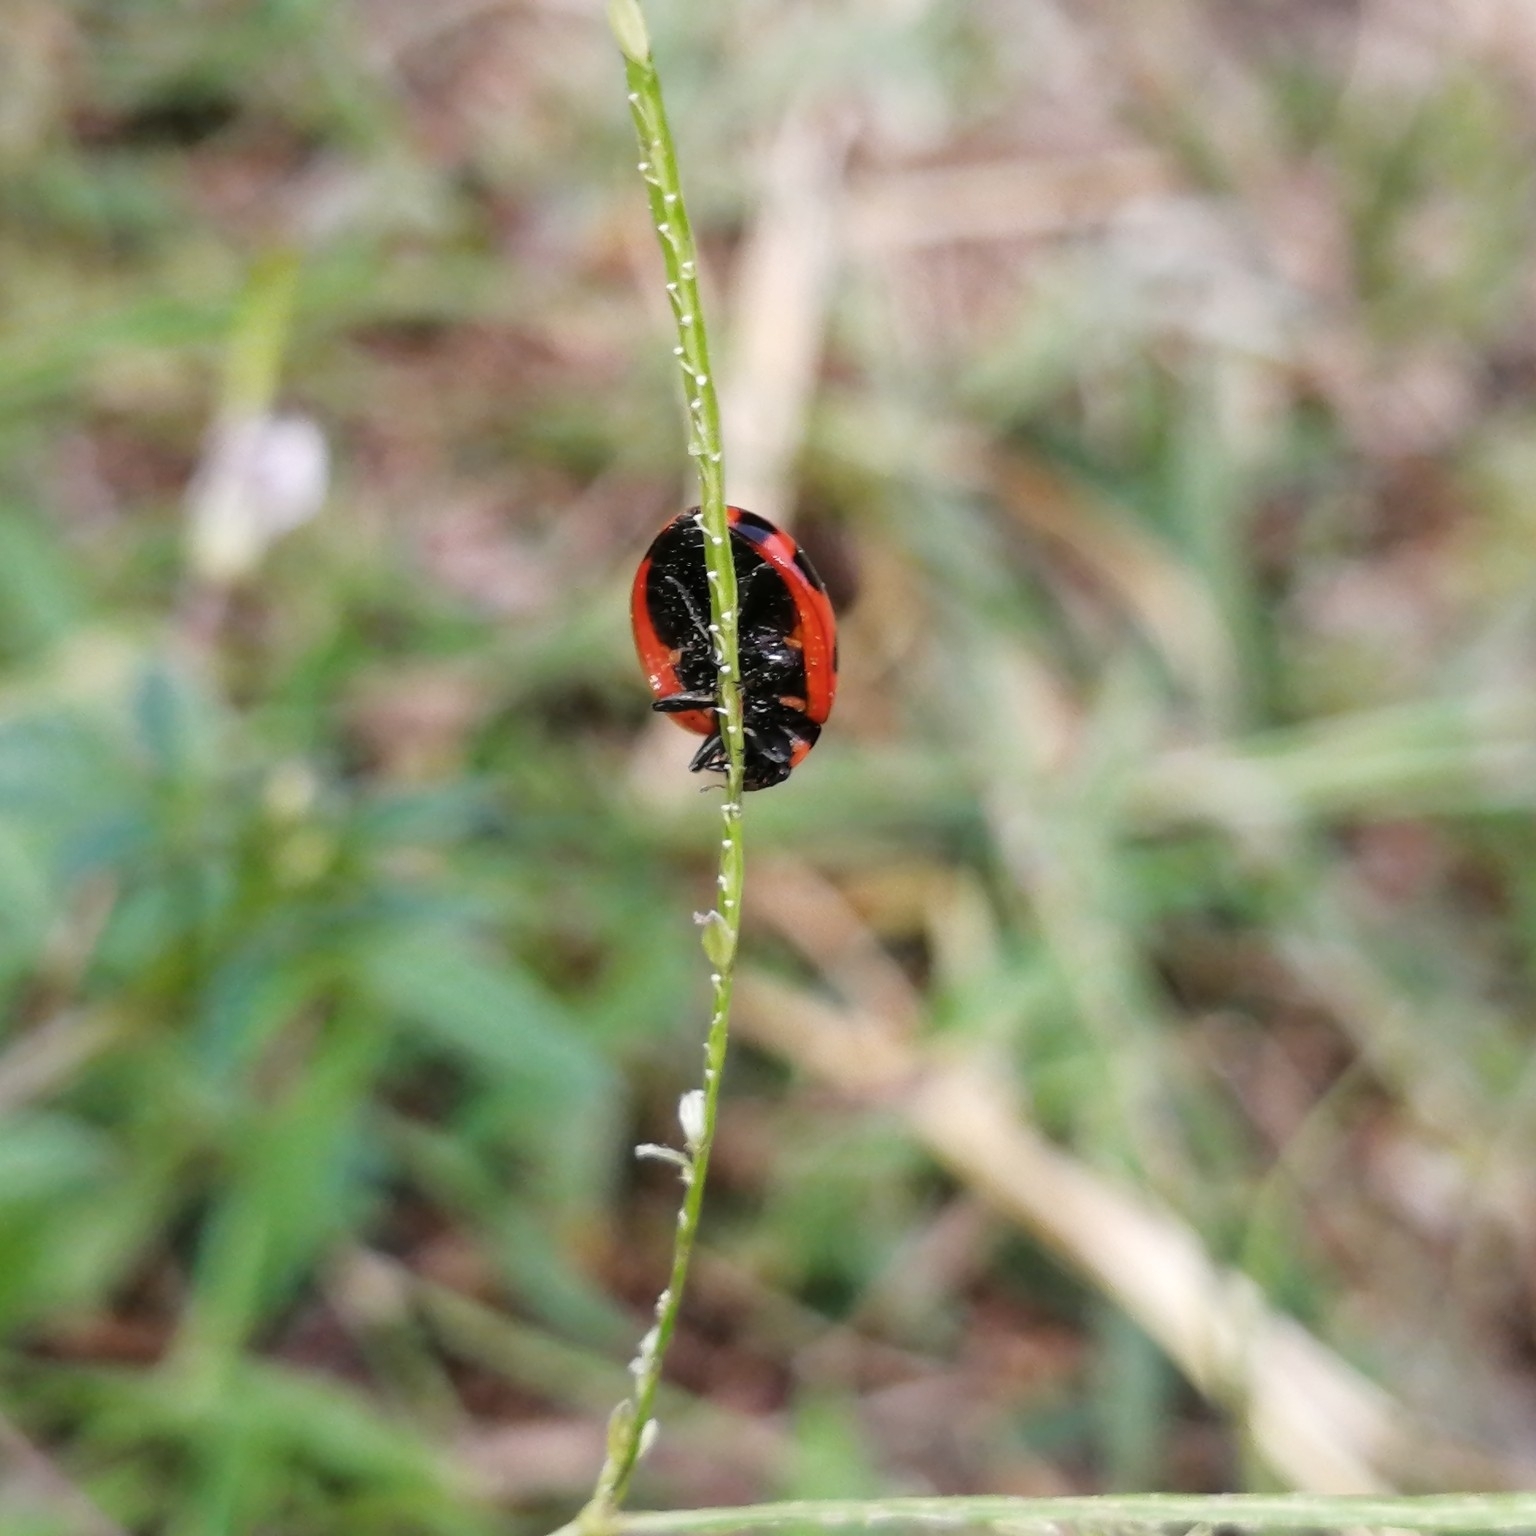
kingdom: Animalia
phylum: Arthropoda
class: Insecta
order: Coleoptera
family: Coccinellidae
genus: Coccinella
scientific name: Coccinella transversalis
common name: Transverse lady beetle
